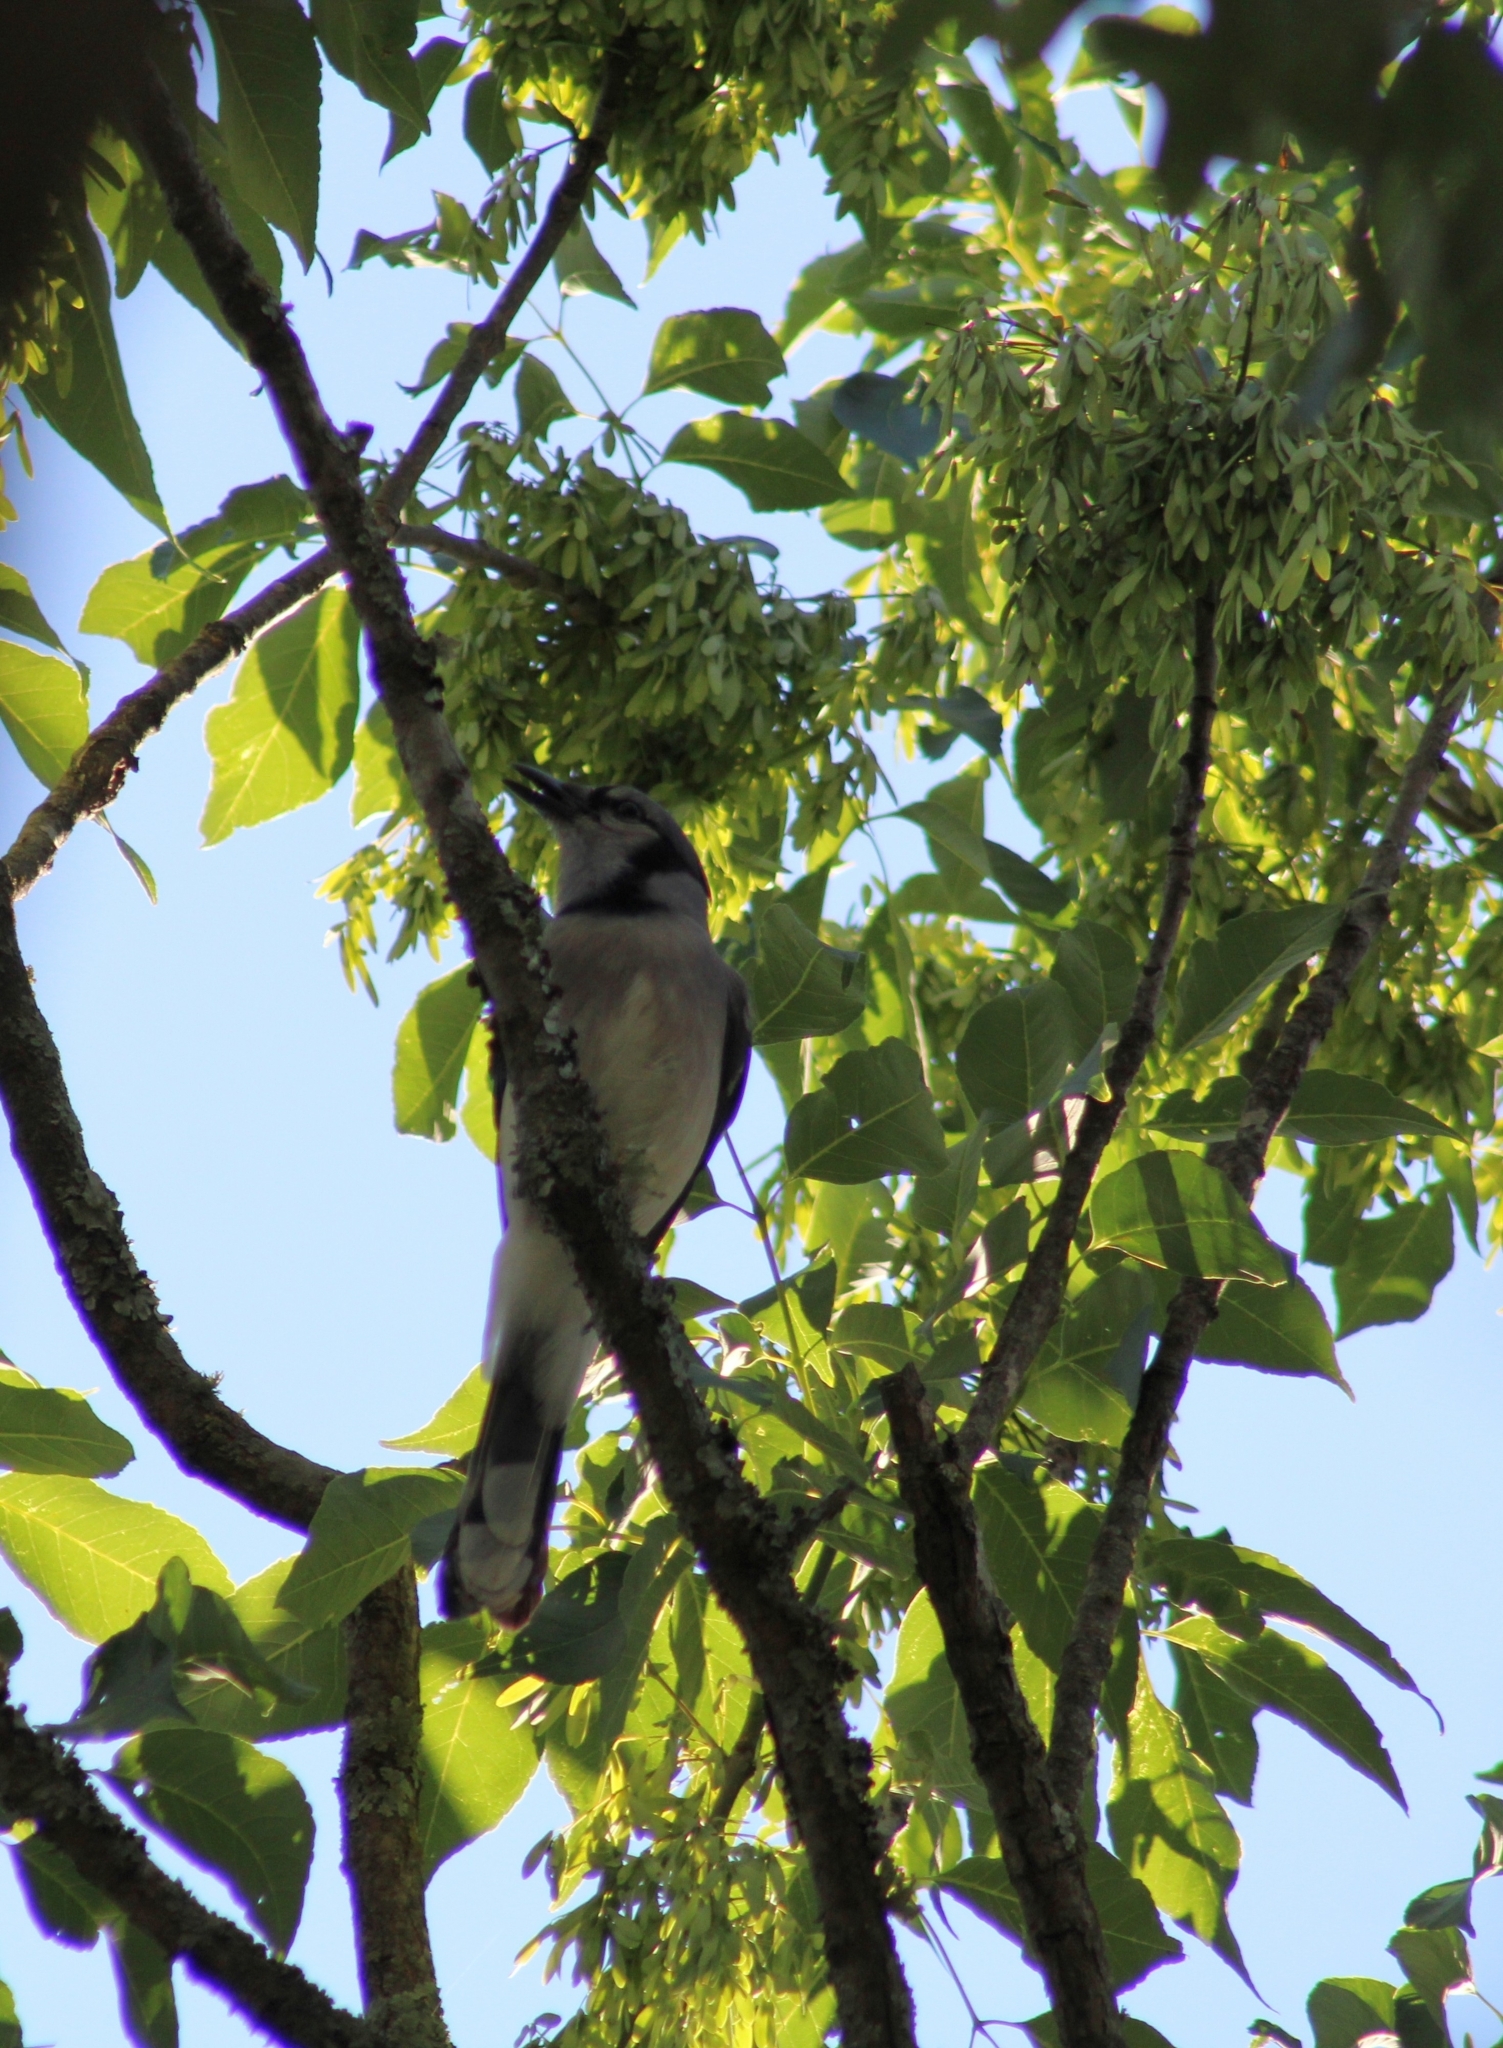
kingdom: Animalia
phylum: Chordata
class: Aves
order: Passeriformes
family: Corvidae
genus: Cyanocitta
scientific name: Cyanocitta cristata
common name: Blue jay
